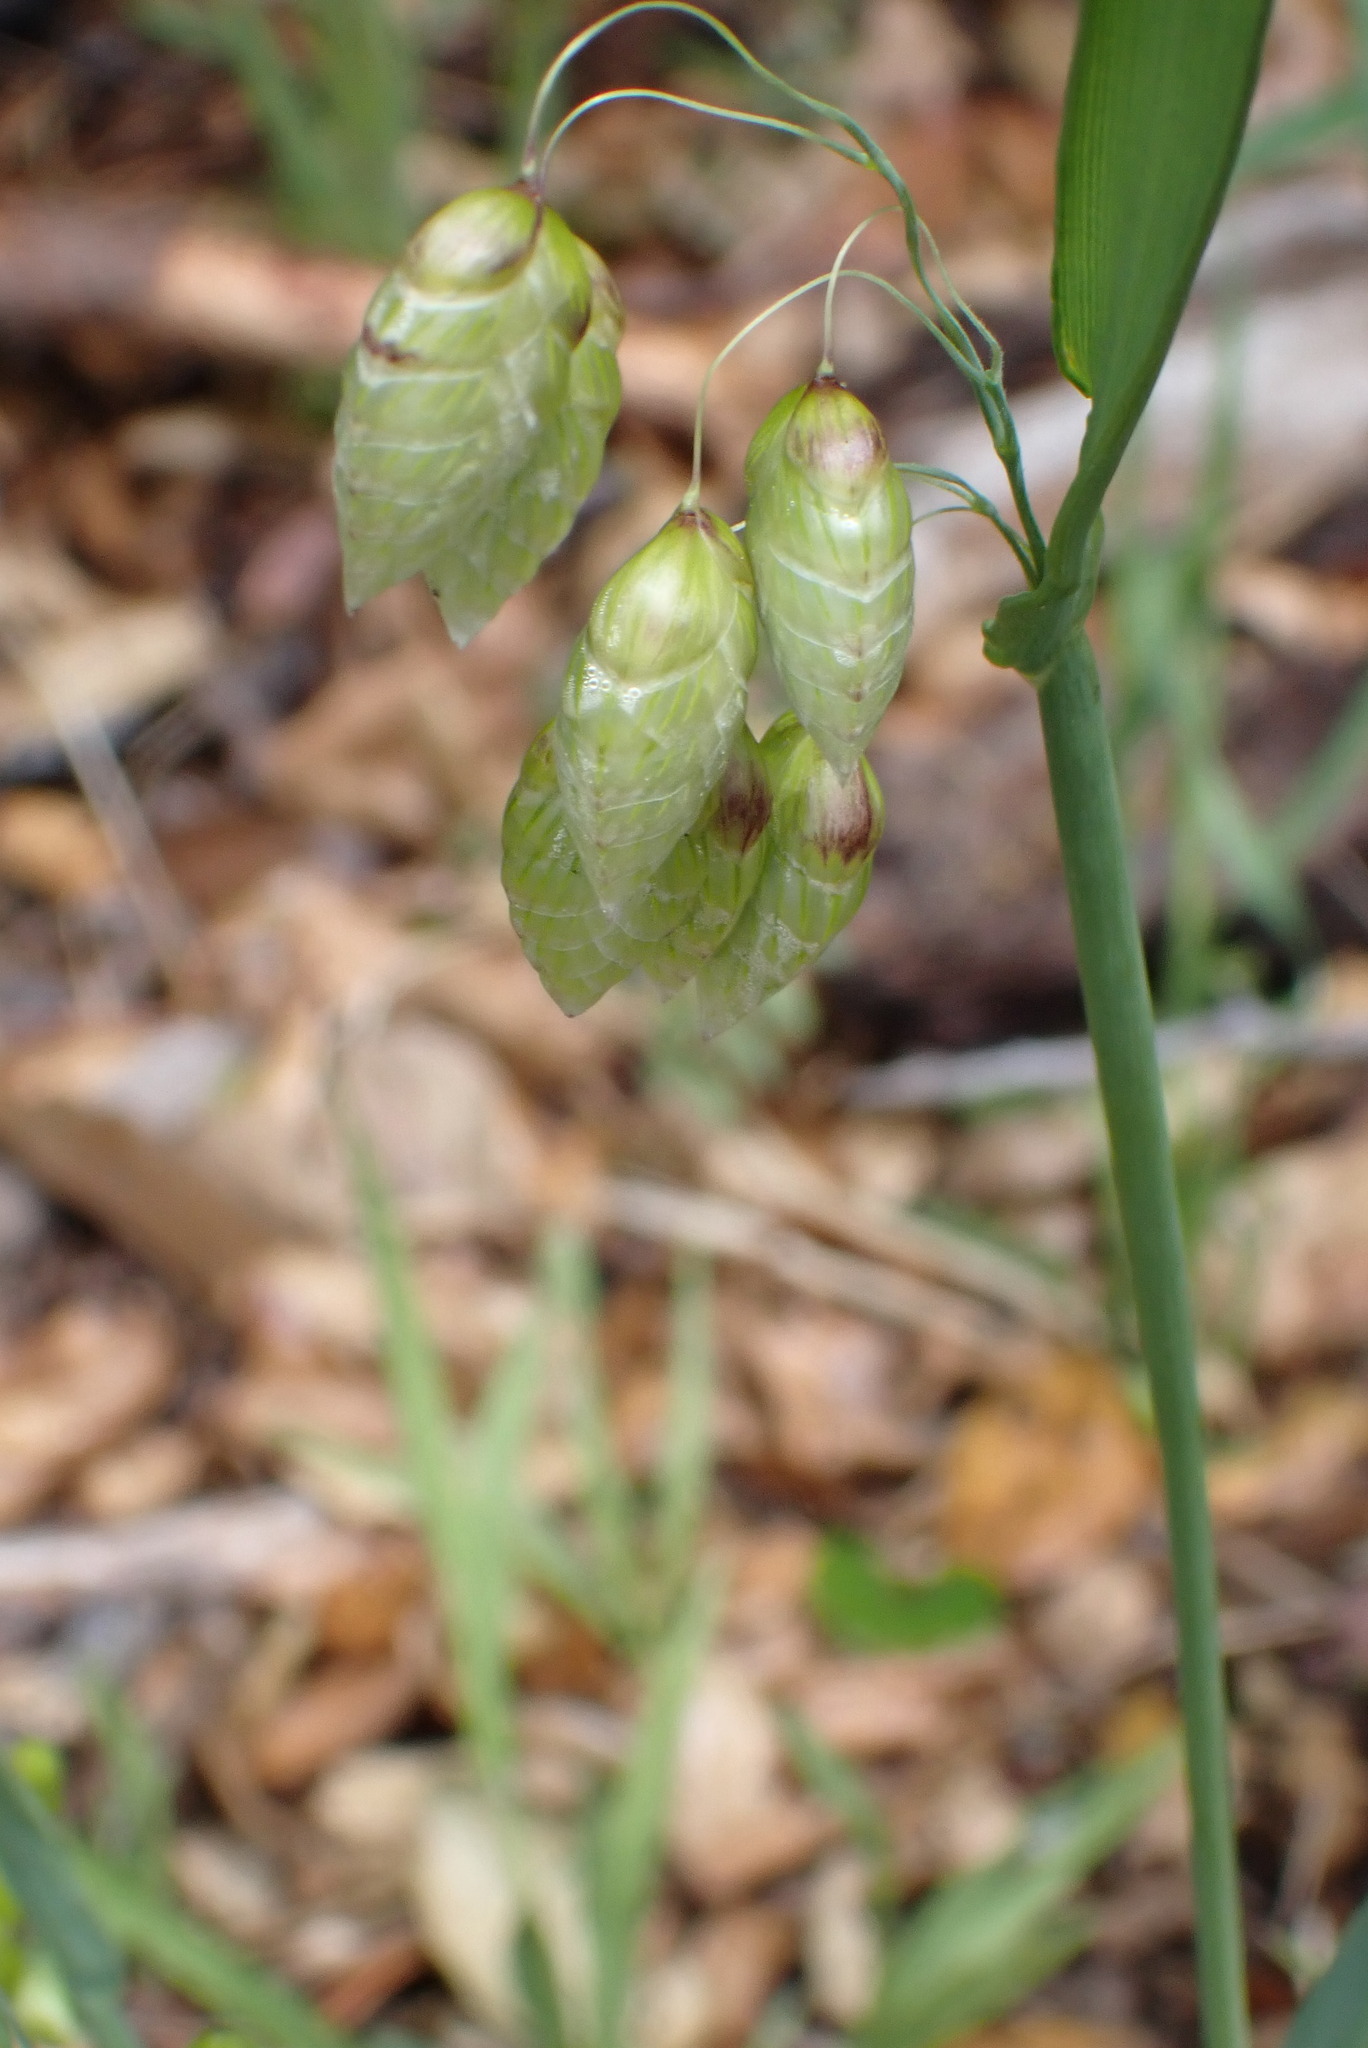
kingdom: Plantae
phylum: Tracheophyta
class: Liliopsida
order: Poales
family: Poaceae
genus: Briza
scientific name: Briza maxima
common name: Big quakinggrass
